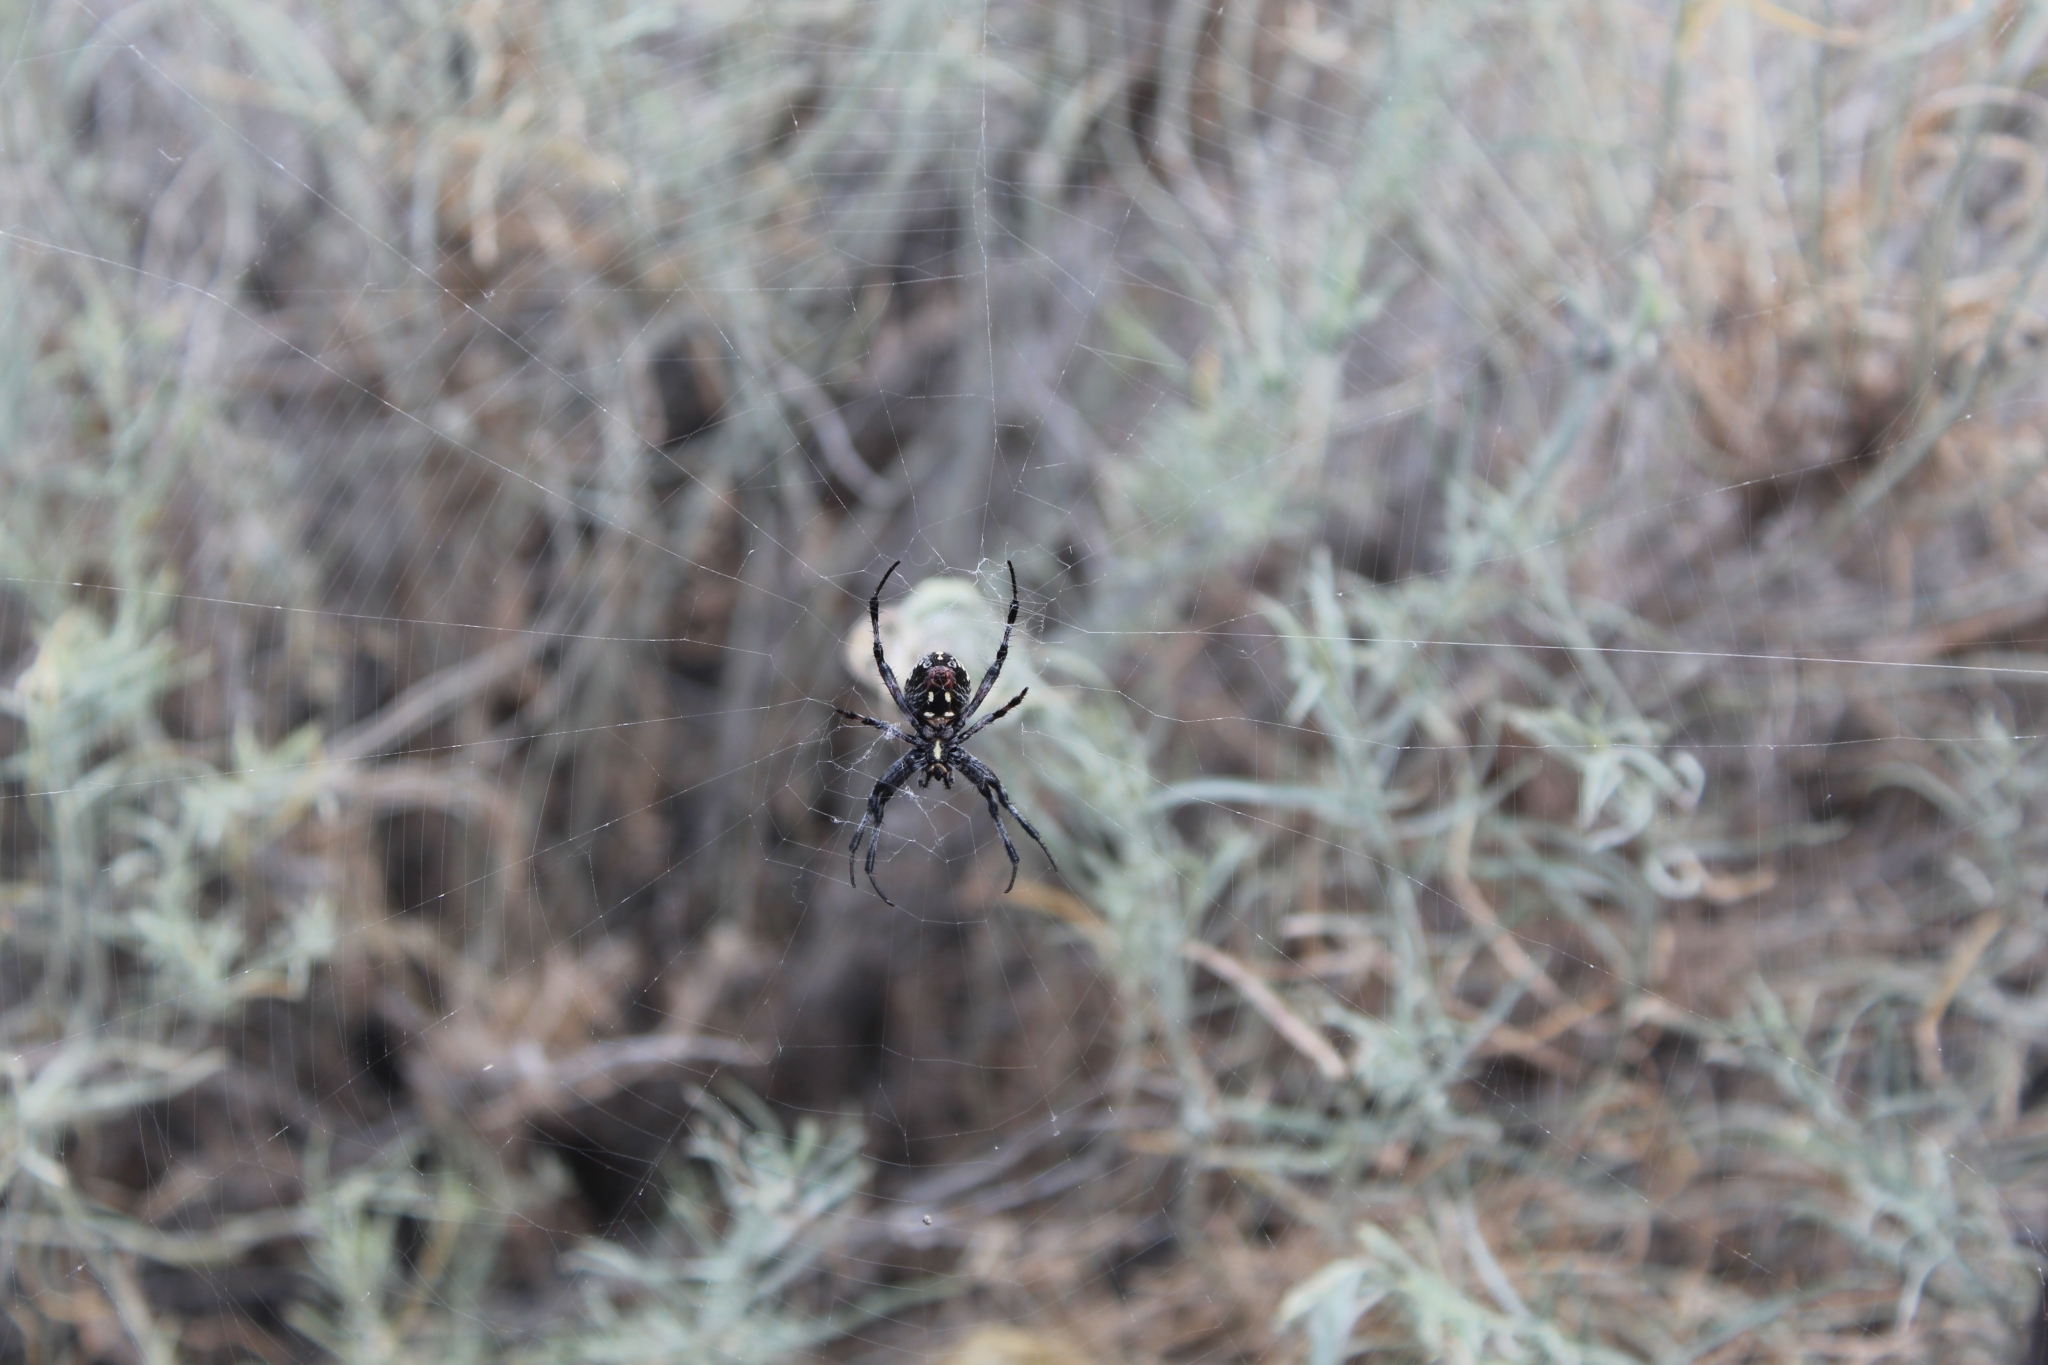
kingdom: Animalia
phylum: Arthropoda
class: Arachnida
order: Araneae
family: Araneidae
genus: Neoscona
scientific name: Neoscona oaxacensis
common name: Orb weavers
